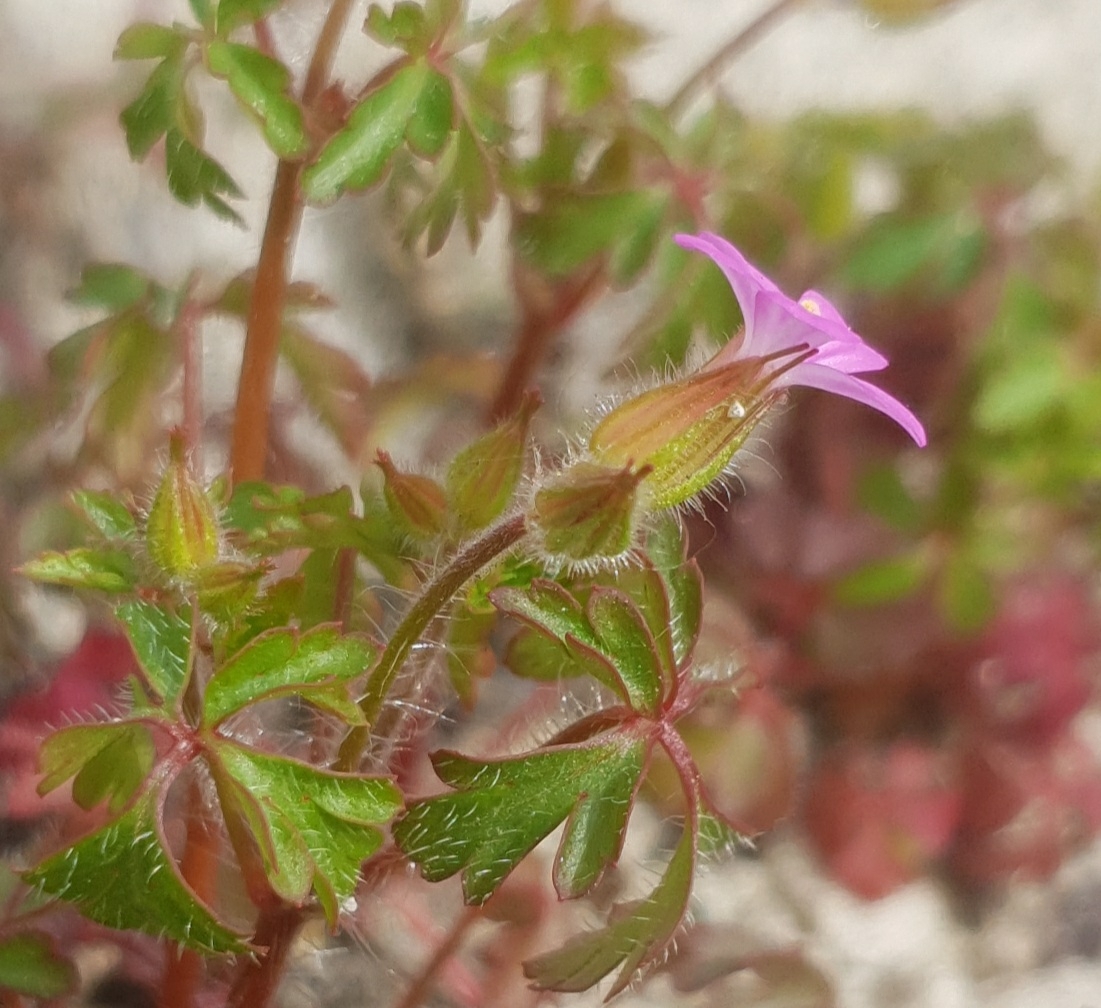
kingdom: Plantae
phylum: Tracheophyta
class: Magnoliopsida
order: Geraniales
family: Geraniaceae
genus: Geranium
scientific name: Geranium purpureum
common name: Little-robin
